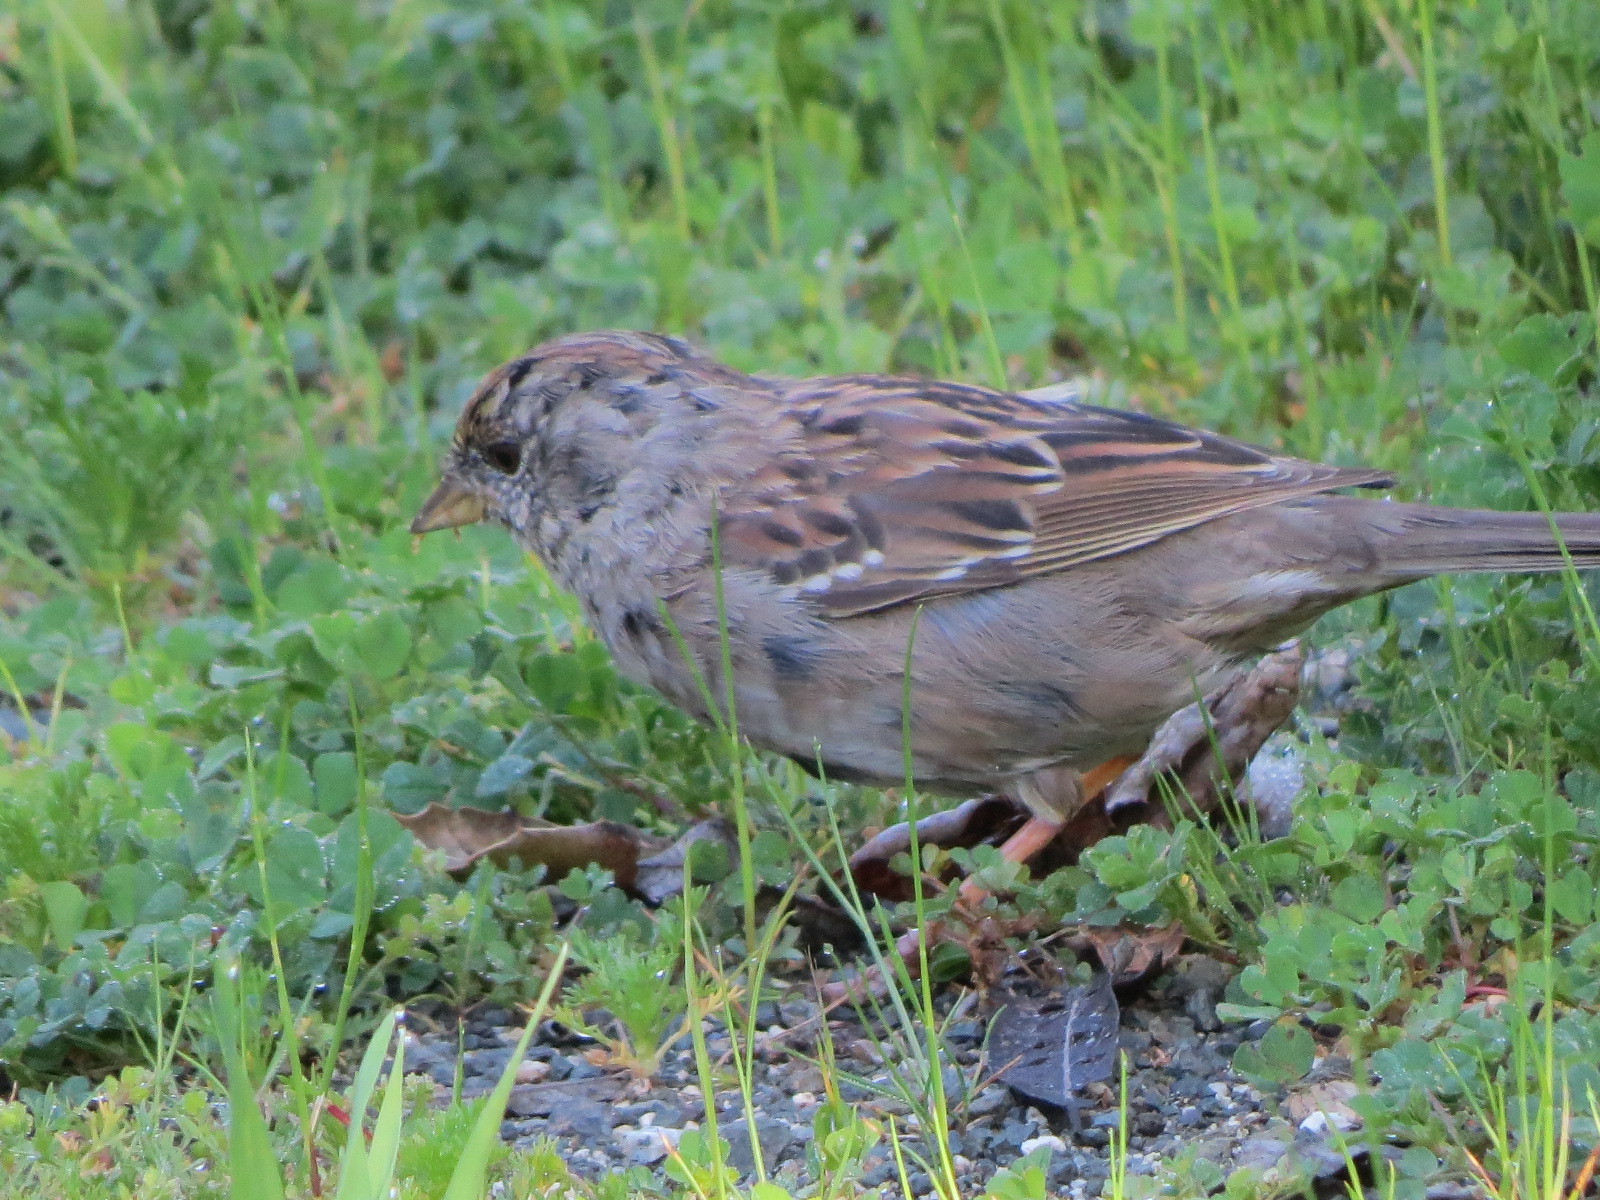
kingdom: Animalia
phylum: Chordata
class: Aves
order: Passeriformes
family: Passerellidae
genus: Zonotrichia
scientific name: Zonotrichia atricapilla
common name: Golden-crowned sparrow
